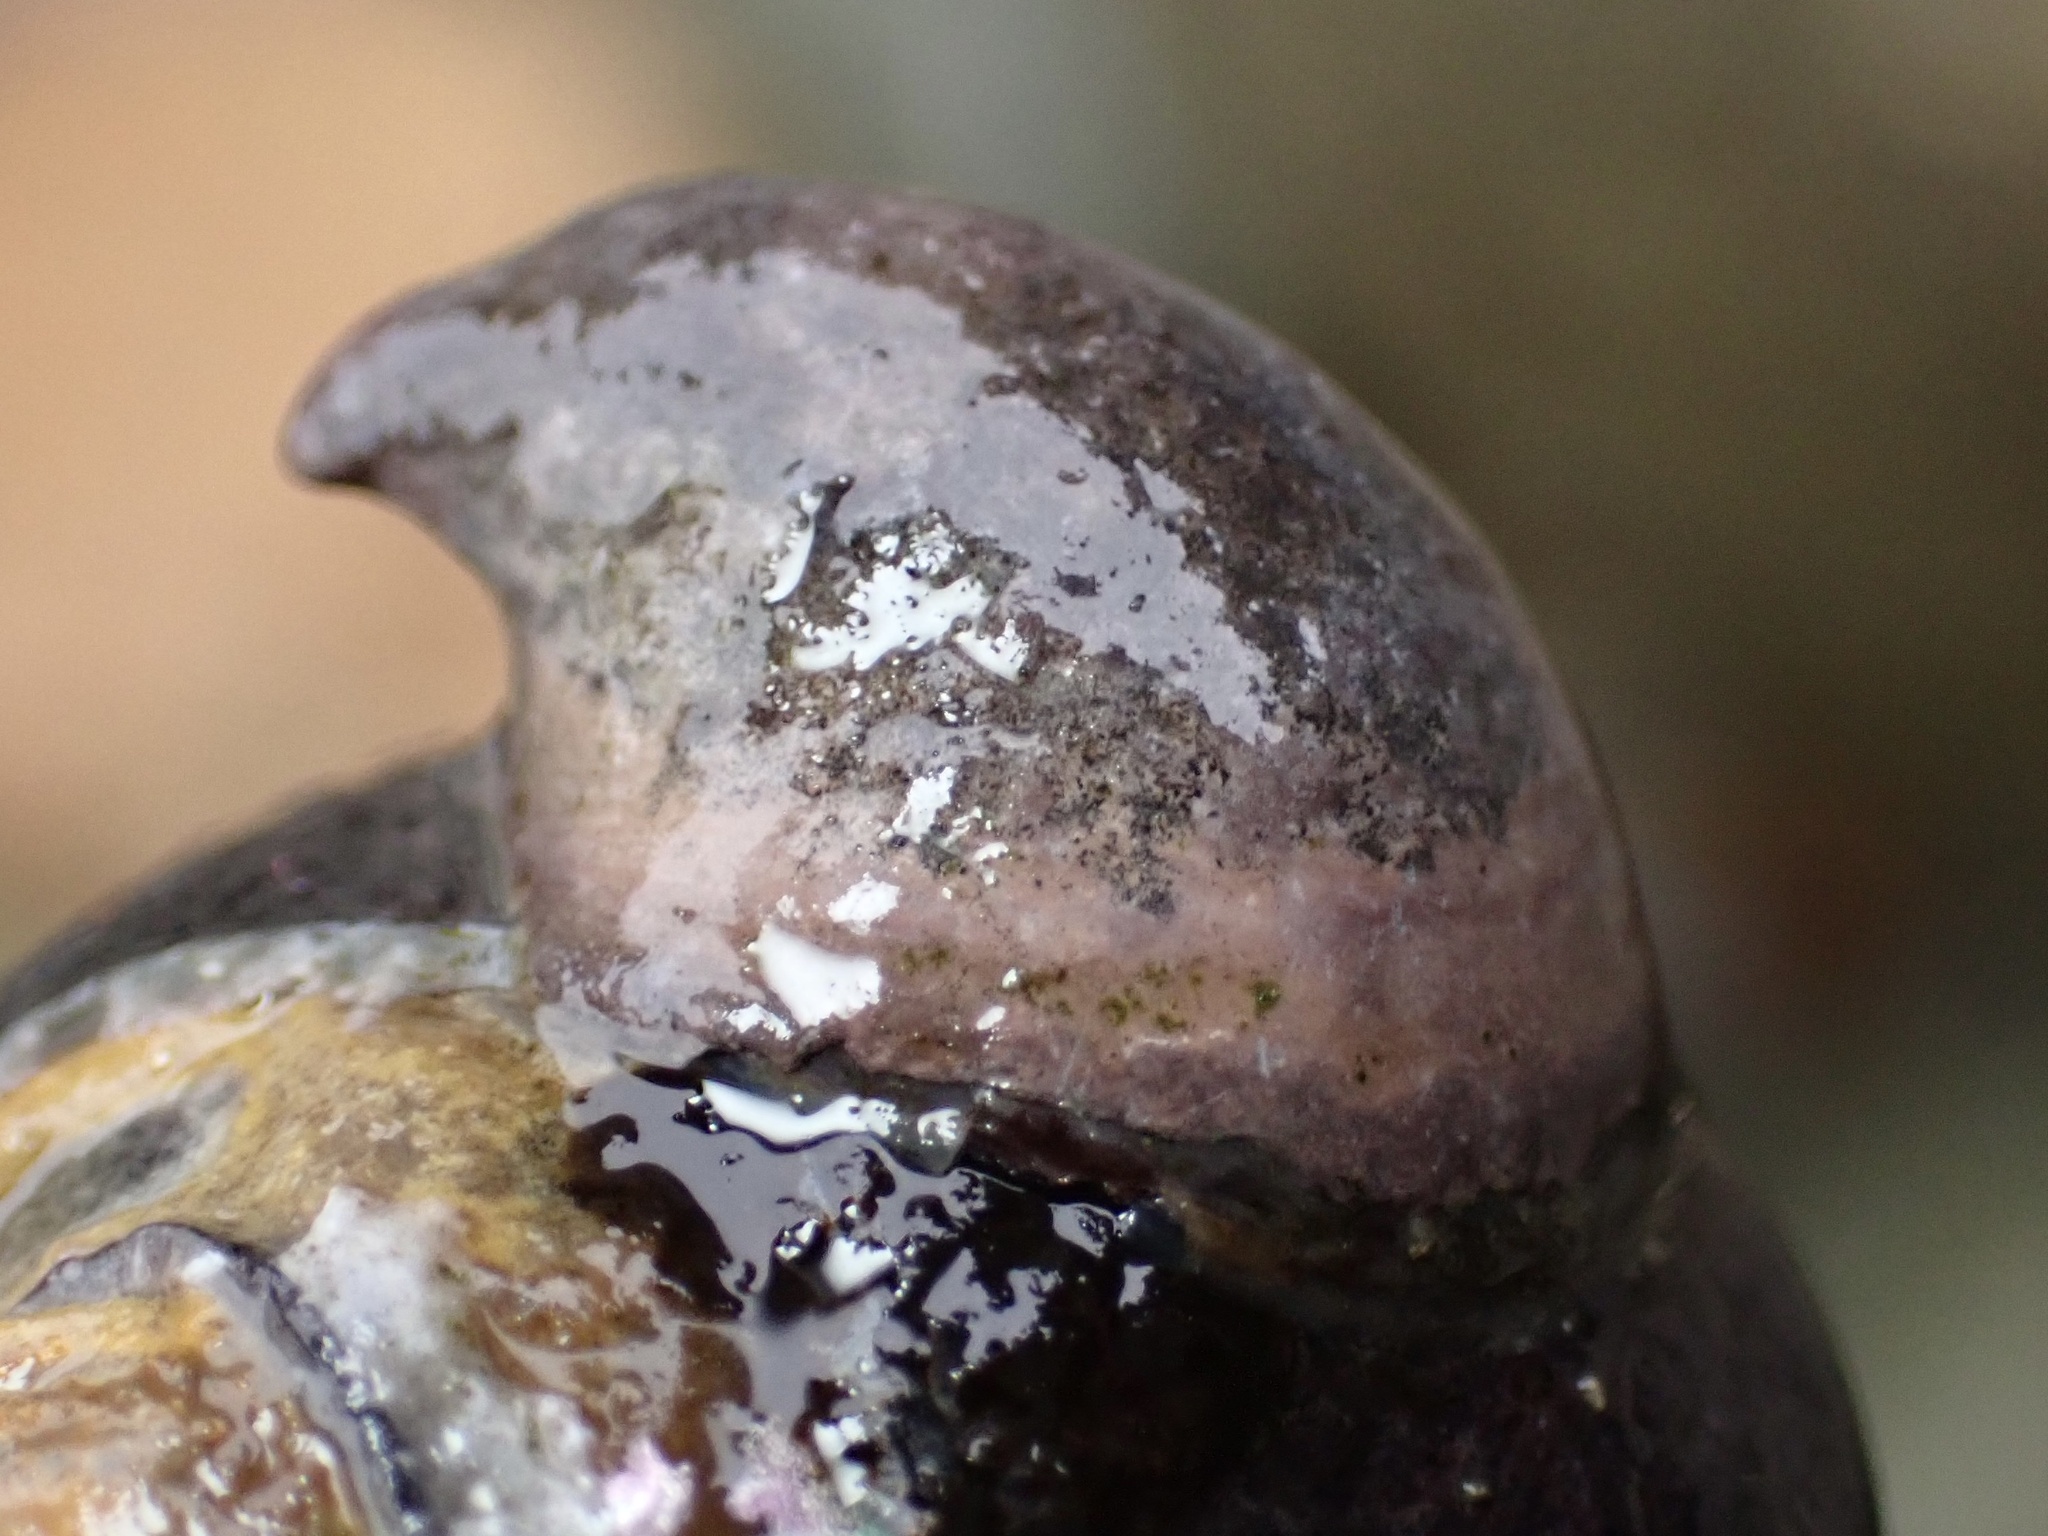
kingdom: Animalia
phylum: Mollusca
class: Gastropoda
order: Littorinimorpha
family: Calyptraeidae
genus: Crepidula
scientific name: Crepidula adunca
